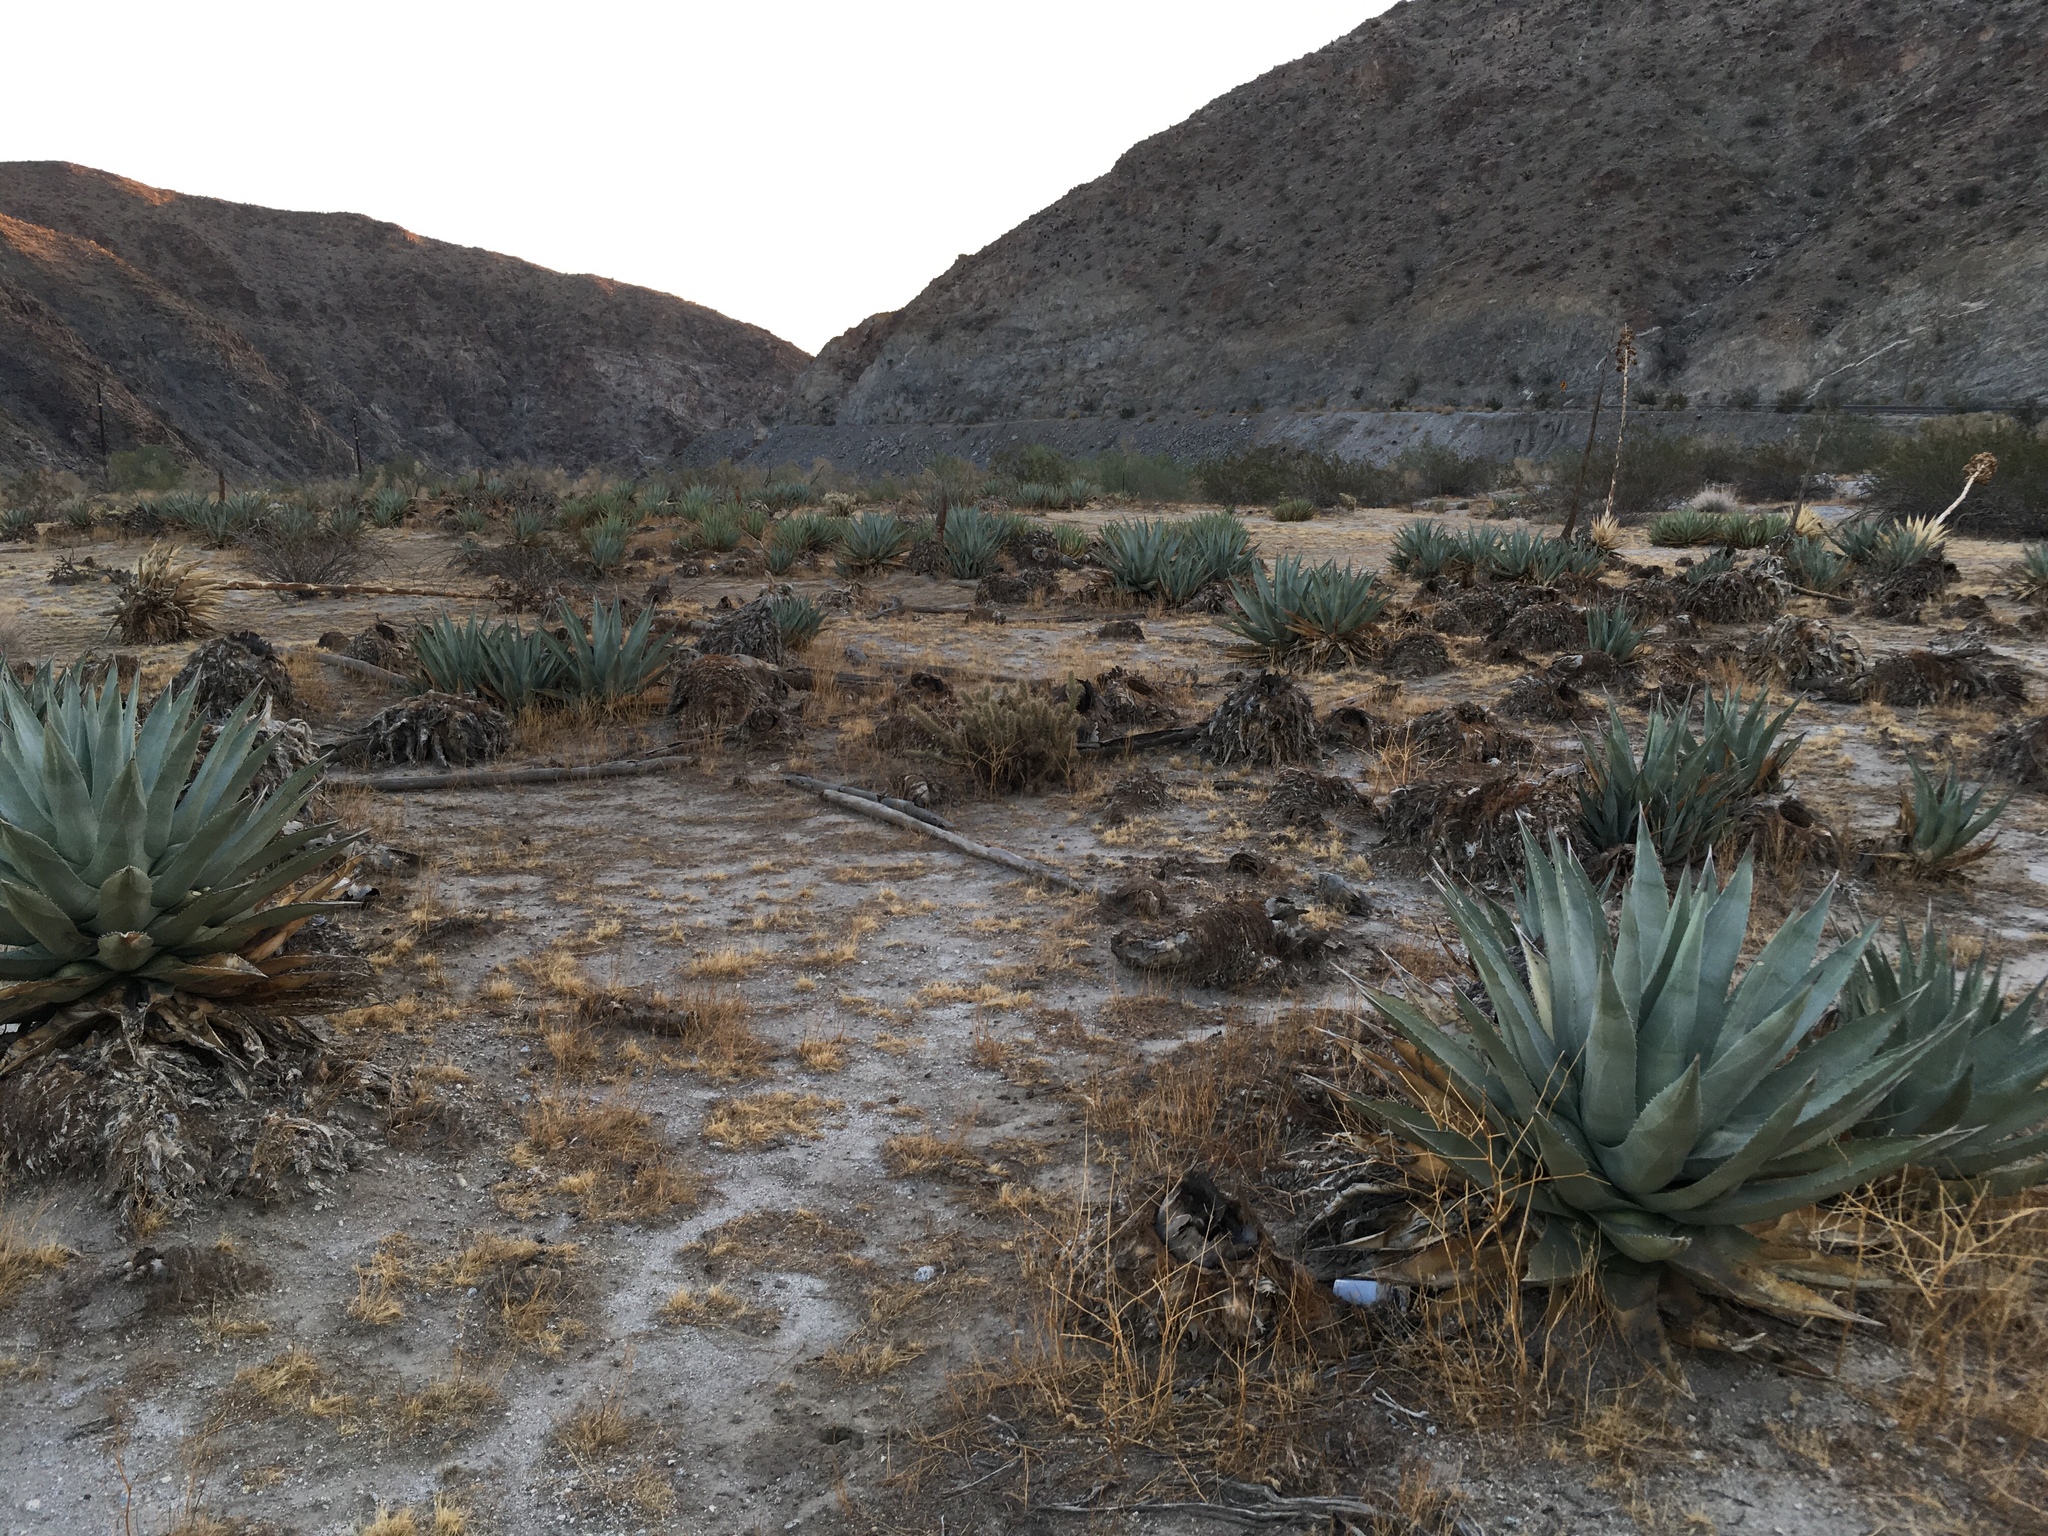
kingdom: Plantae
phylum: Tracheophyta
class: Liliopsida
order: Asparagales
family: Asparagaceae
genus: Agave
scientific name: Agave deserti
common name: Desert agave
